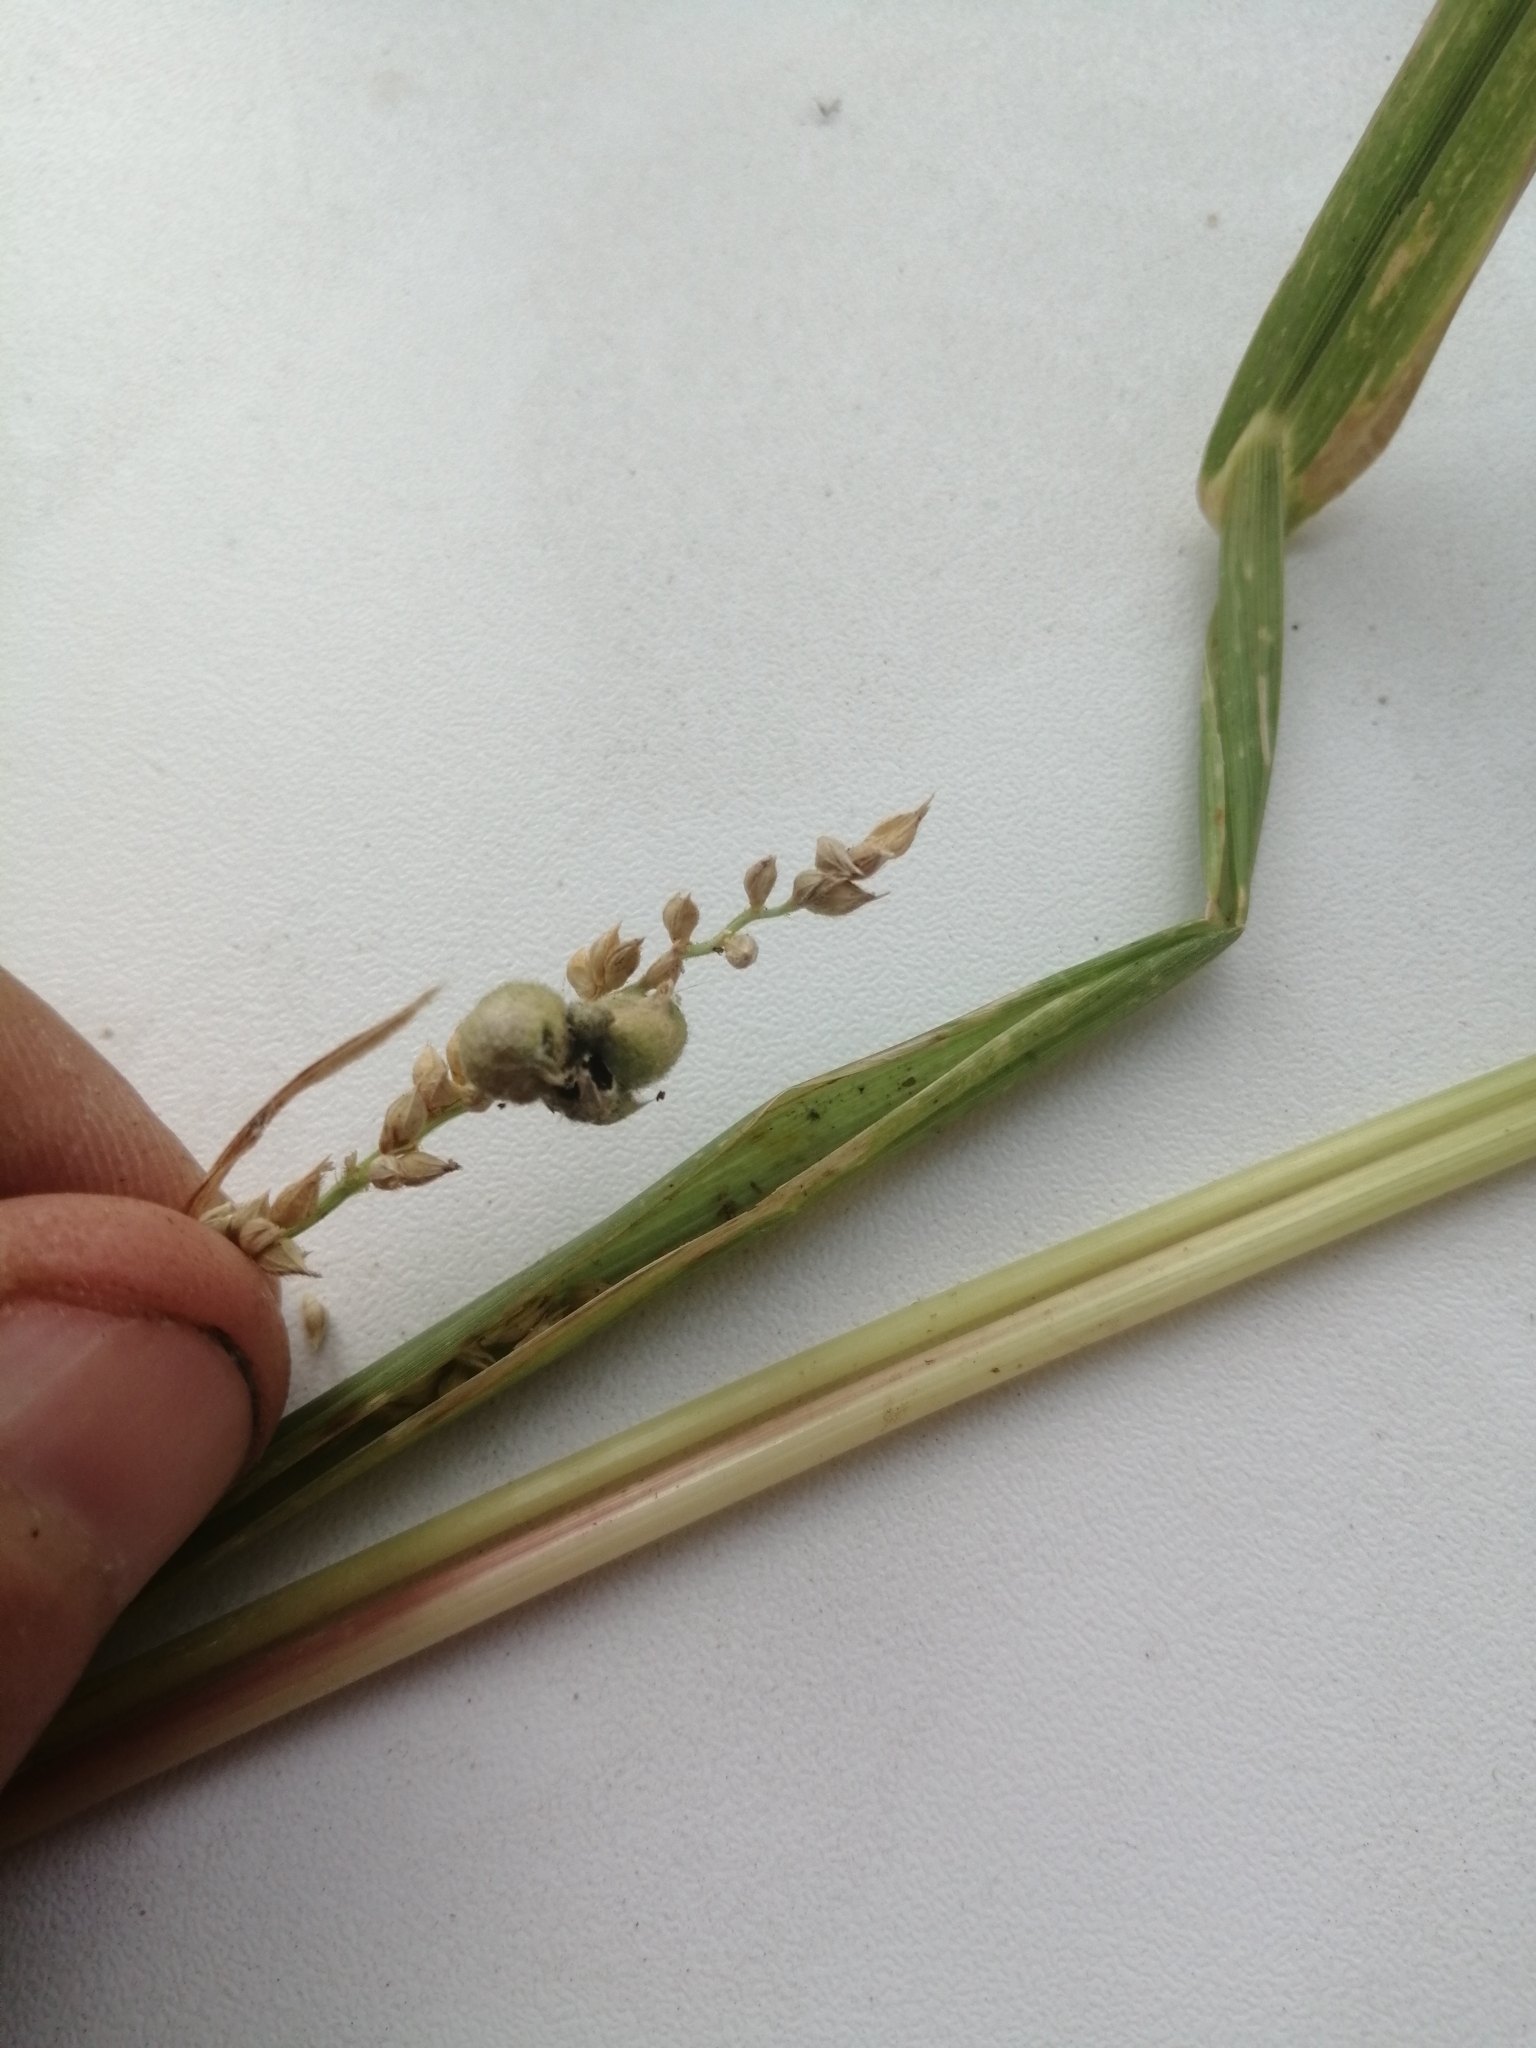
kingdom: Plantae
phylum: Tracheophyta
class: Liliopsida
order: Poales
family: Poaceae
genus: Echinochloa
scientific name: Echinochloa crus-galli
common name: Cockspur
